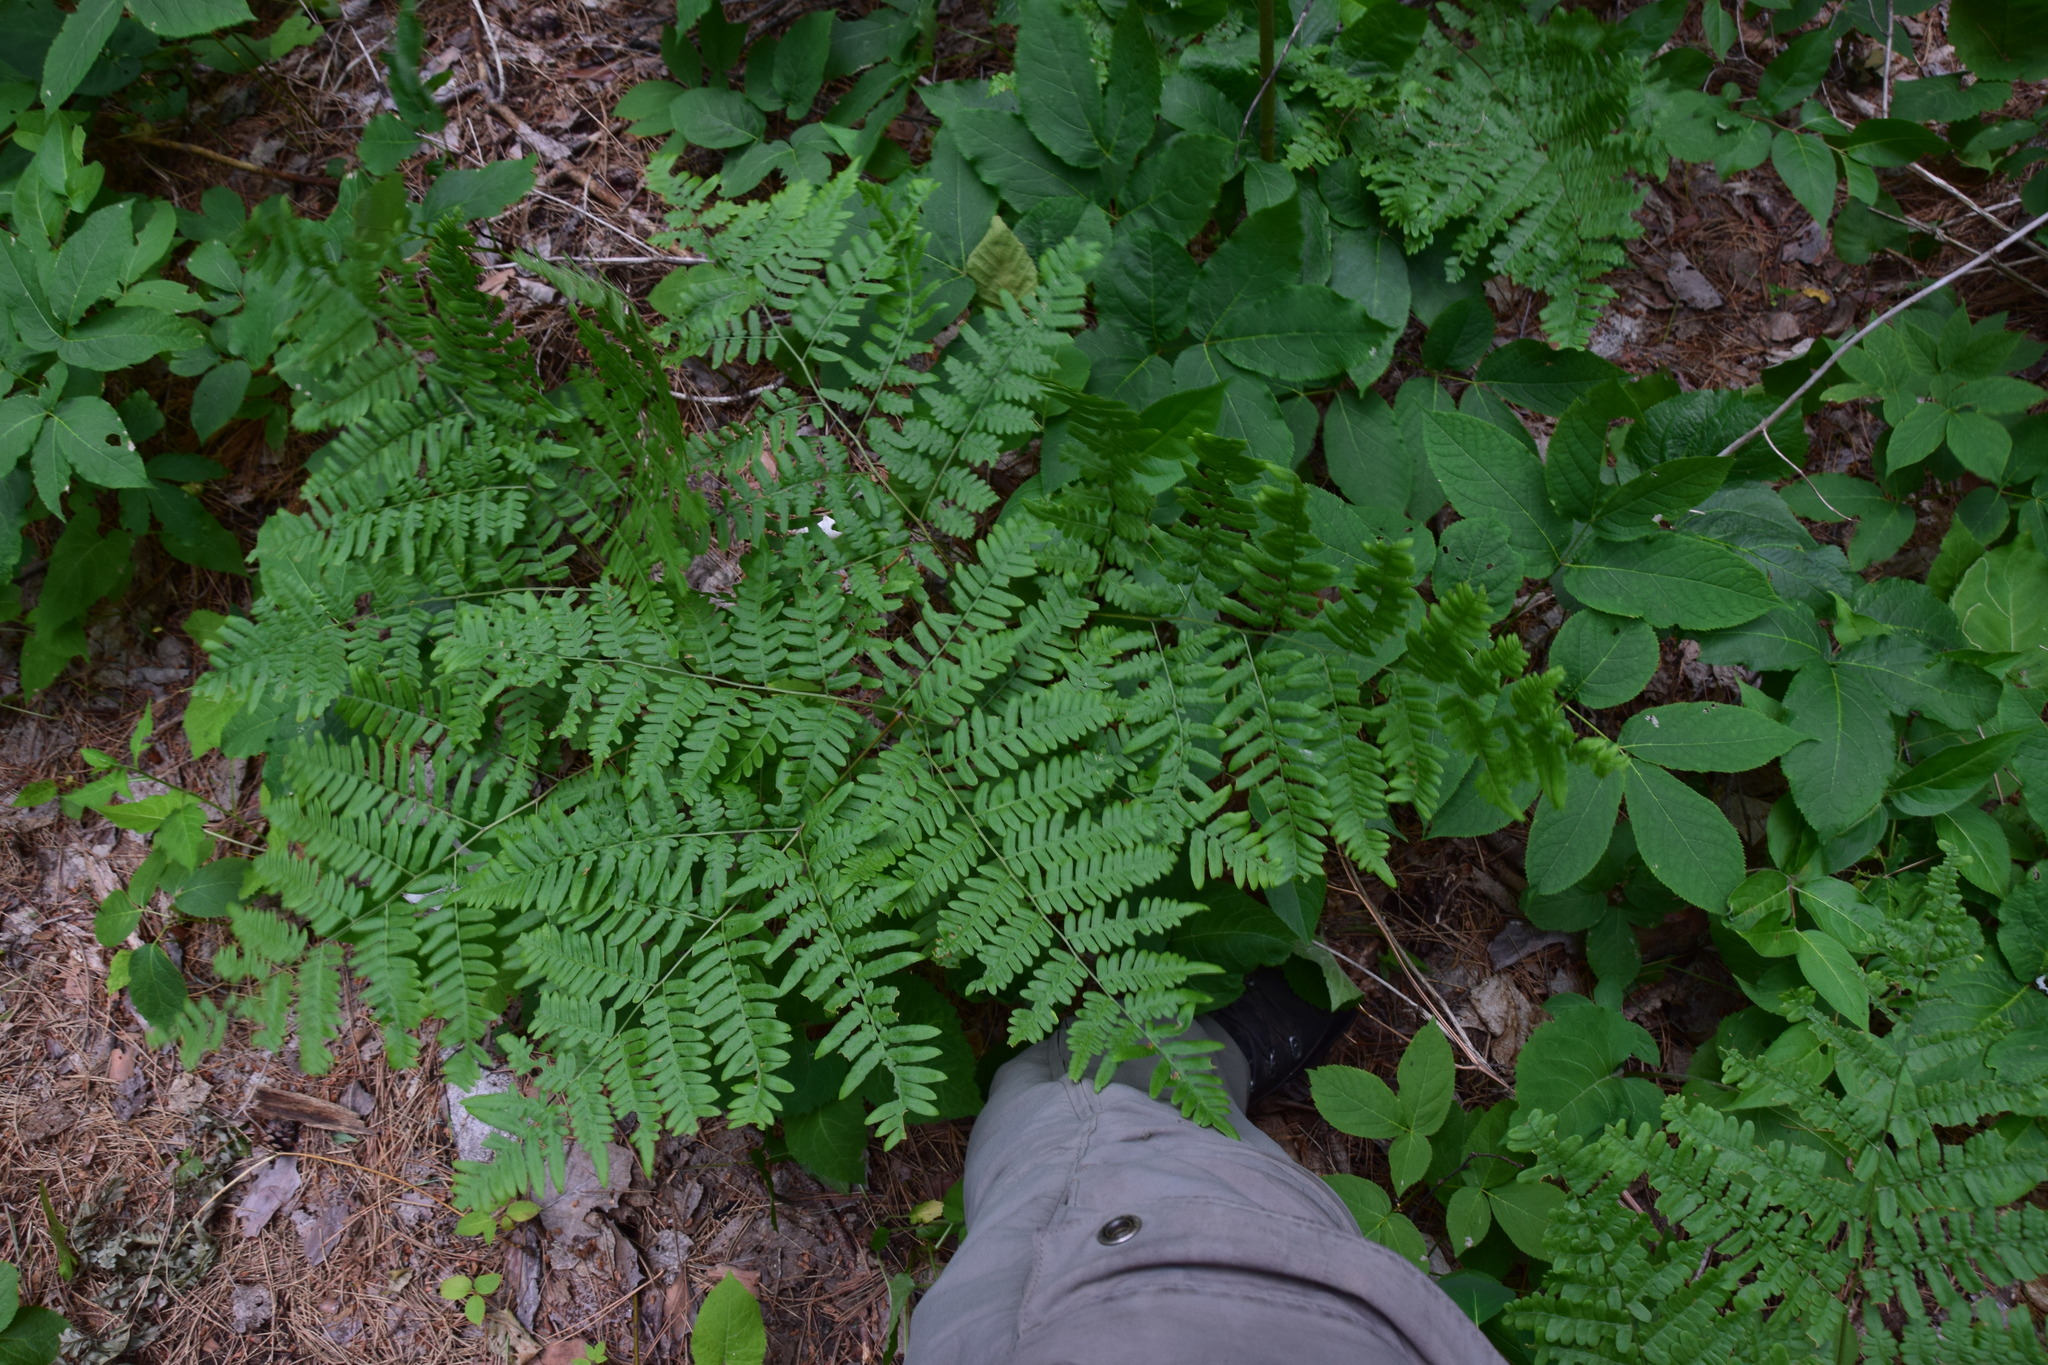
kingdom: Plantae
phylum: Tracheophyta
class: Polypodiopsida
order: Polypodiales
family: Dennstaedtiaceae
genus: Pteridium
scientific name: Pteridium aquilinum
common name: Bracken
